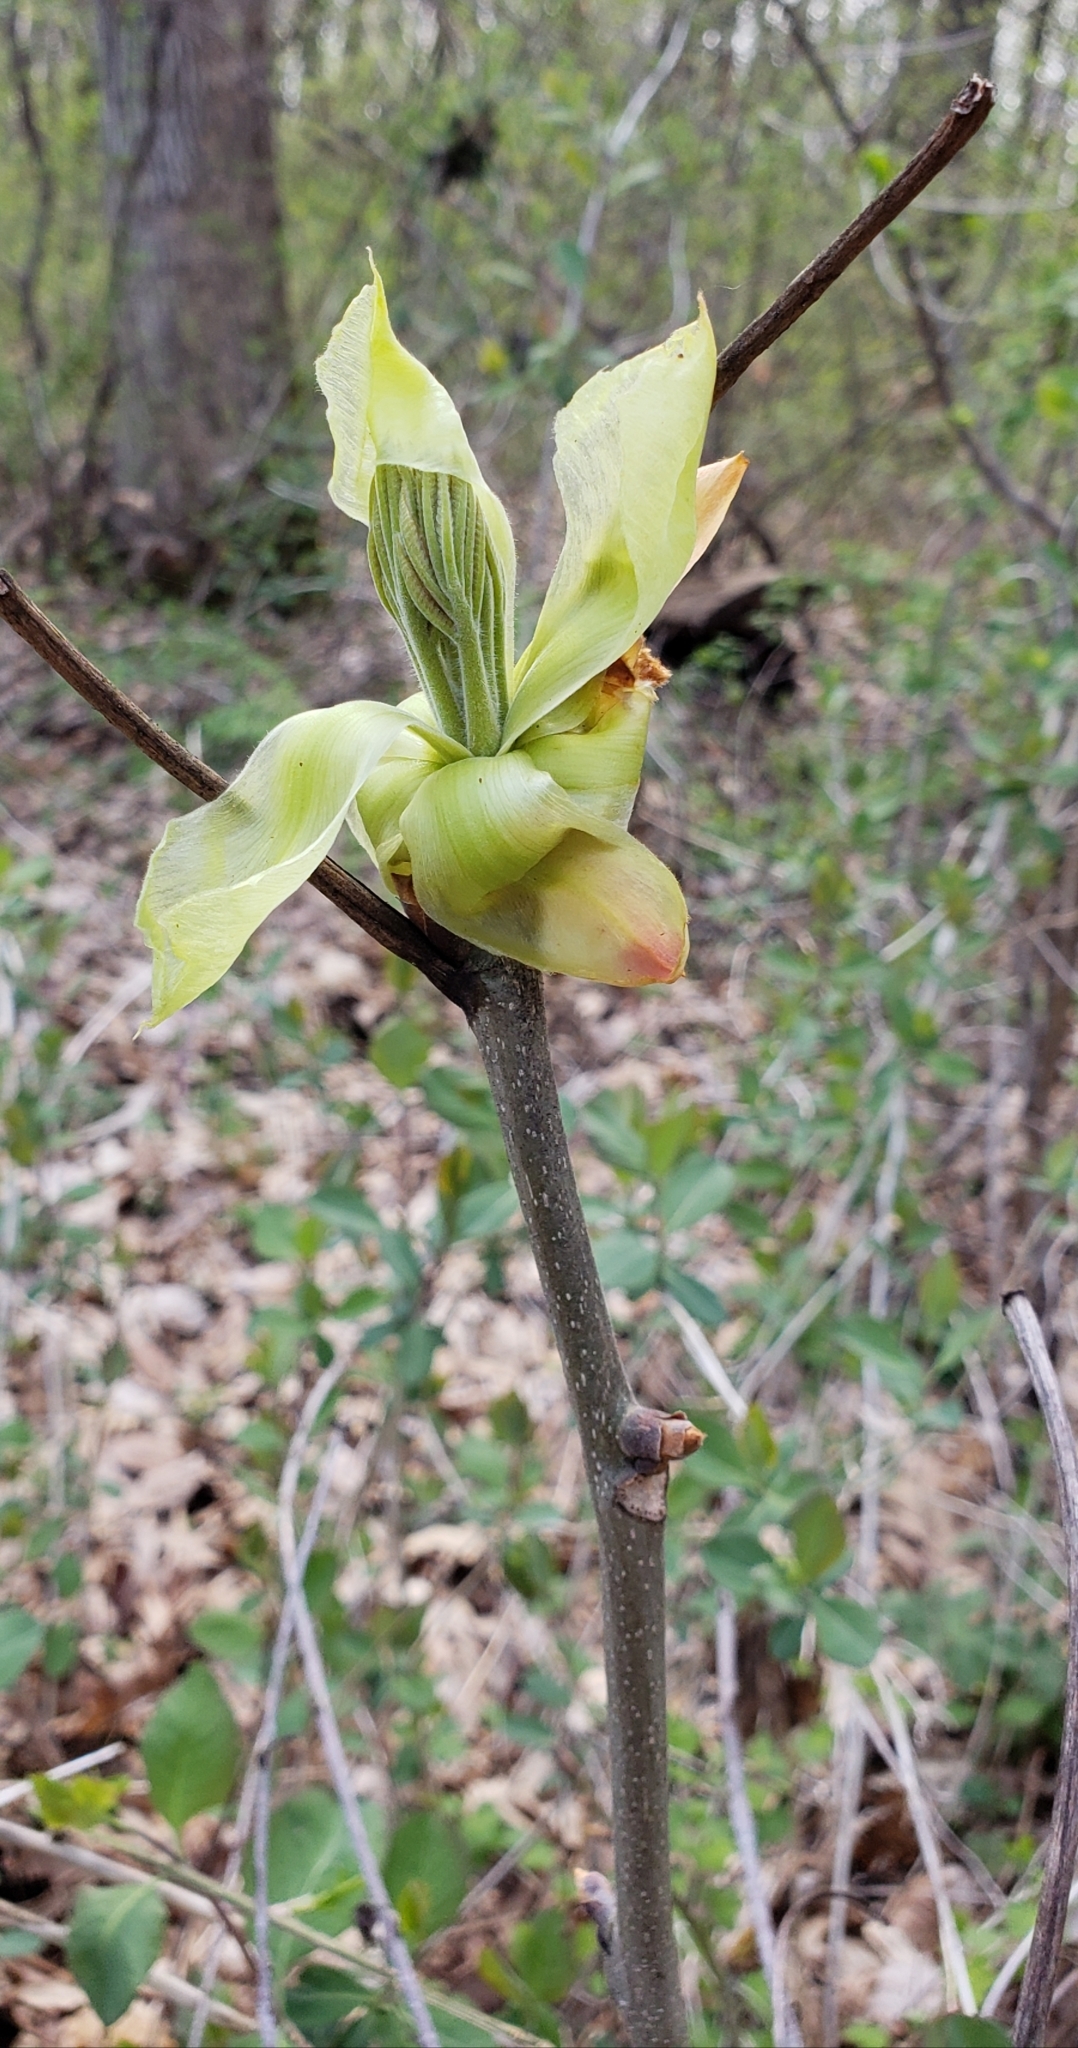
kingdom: Plantae
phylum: Tracheophyta
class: Magnoliopsida
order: Fagales
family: Juglandaceae
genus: Carya
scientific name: Carya ovata
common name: Shagbark hickory
